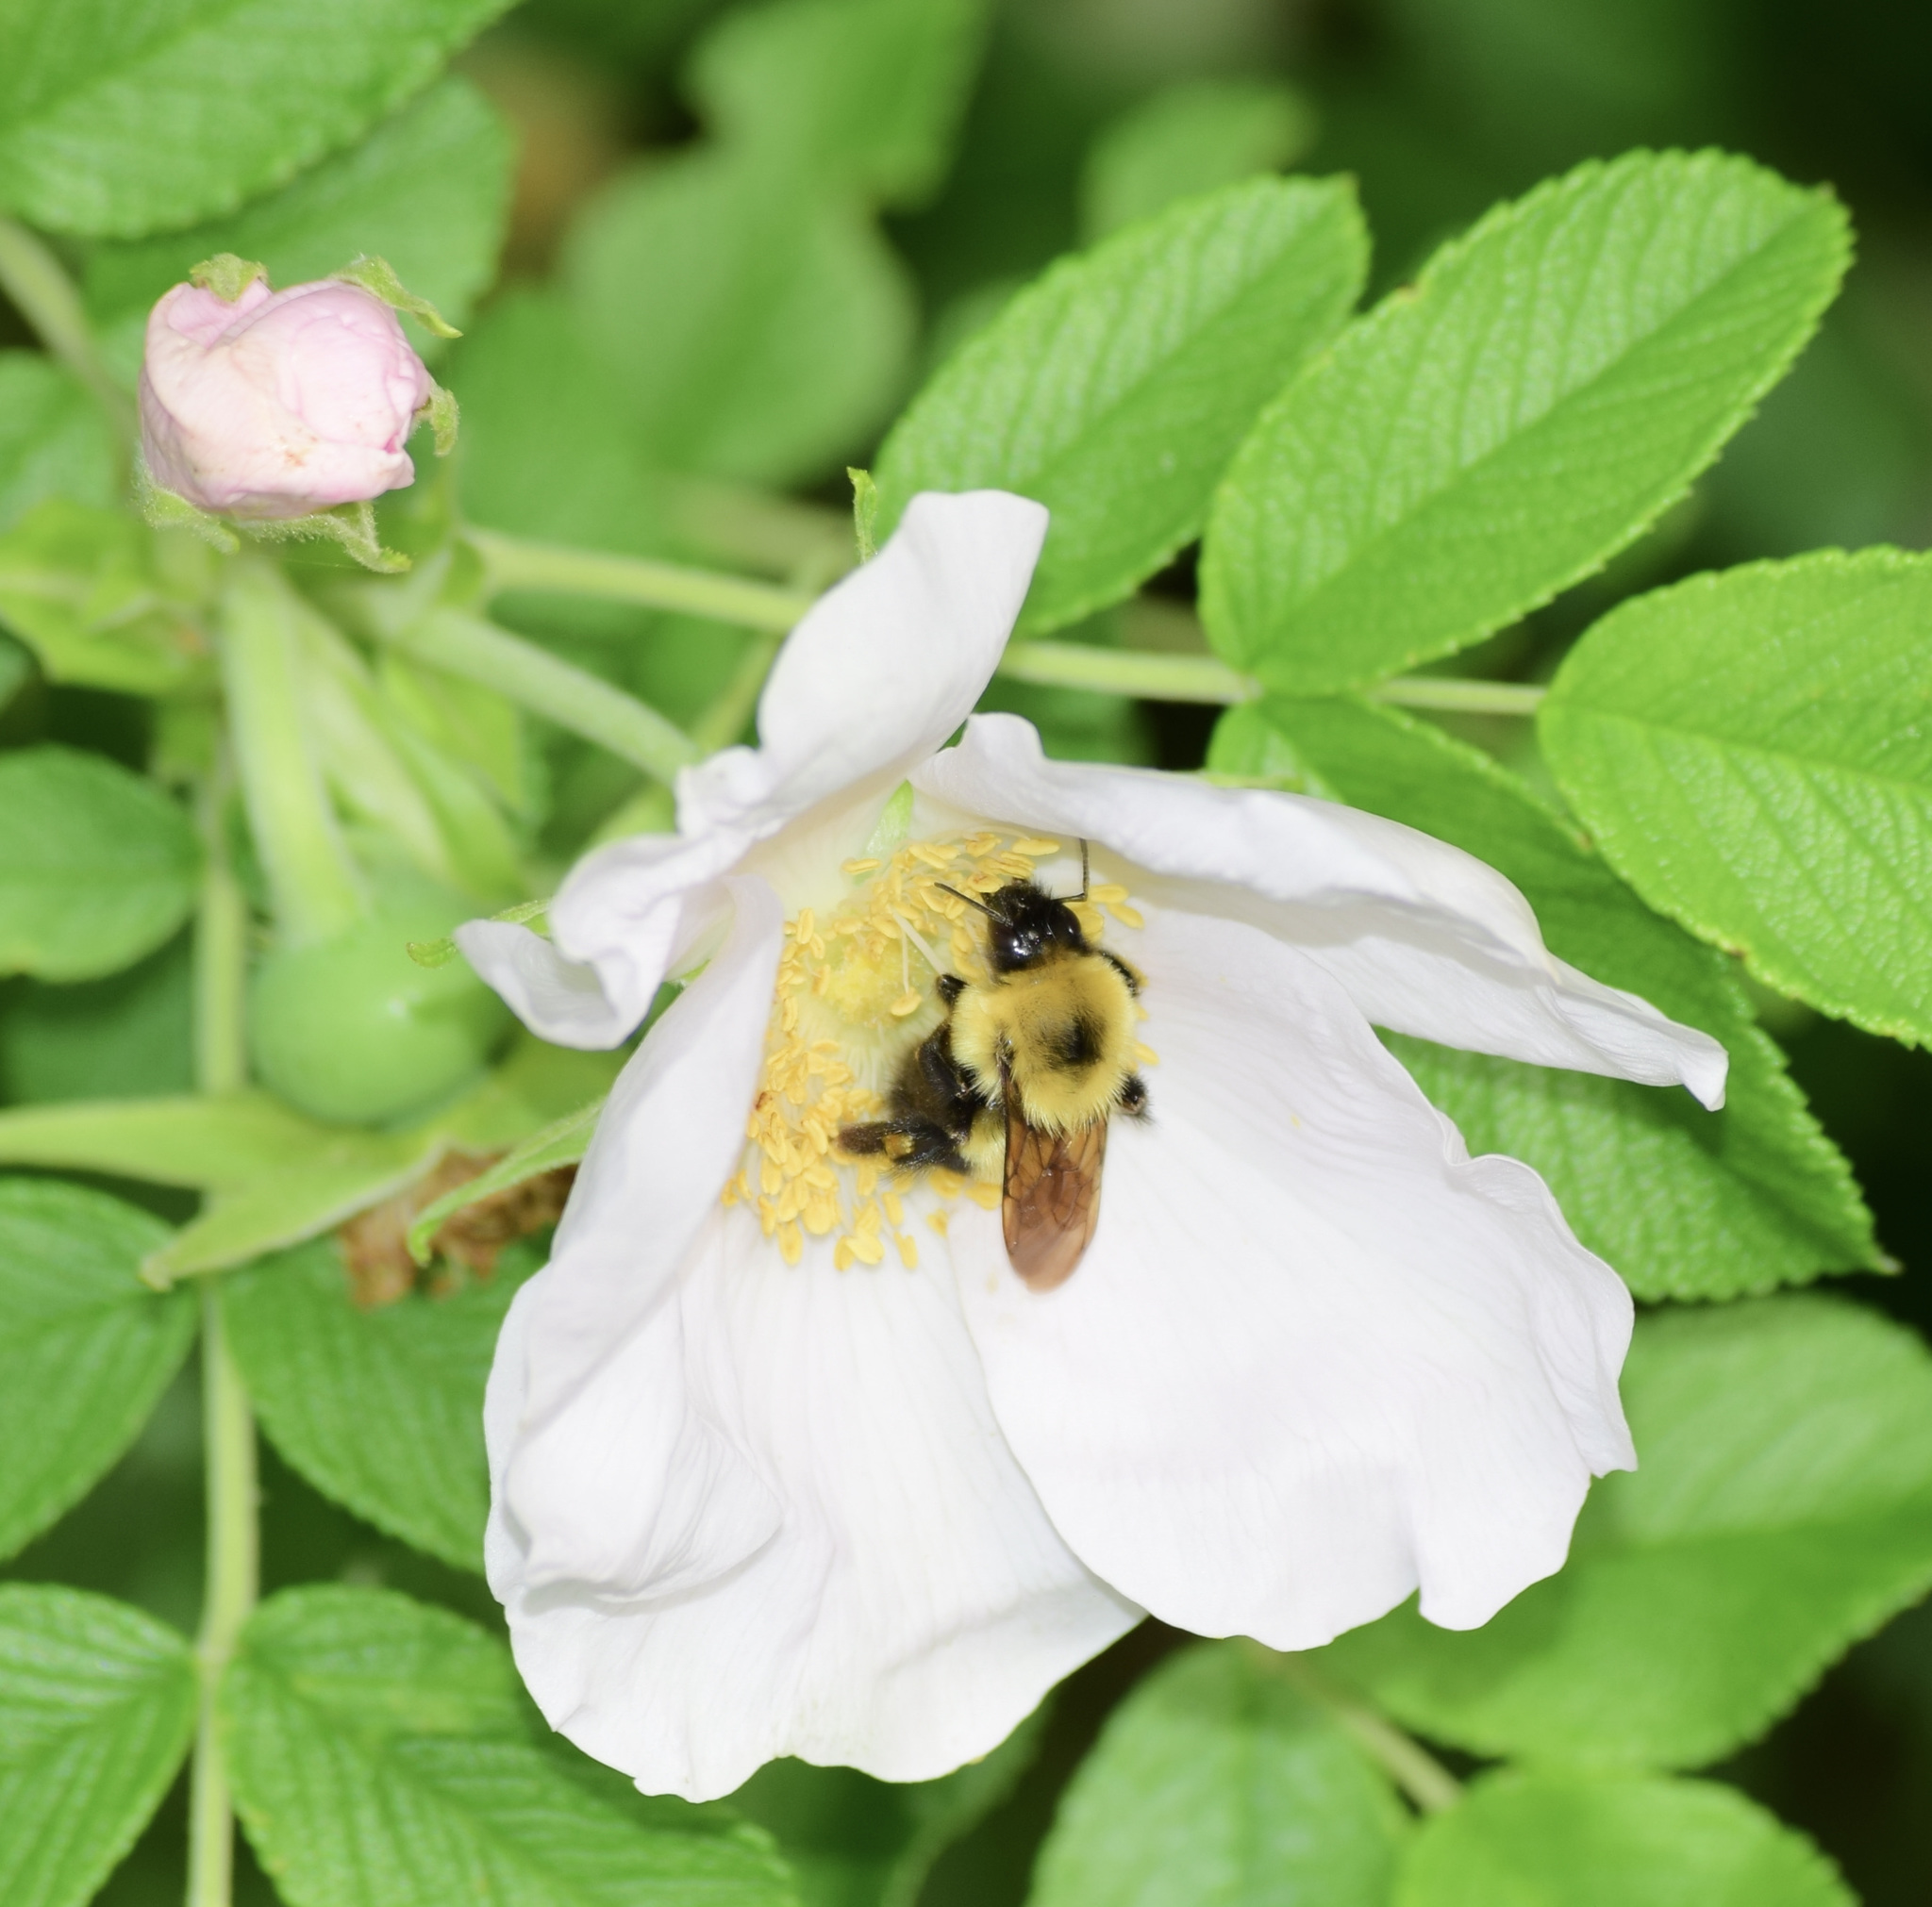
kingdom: Animalia
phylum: Arthropoda
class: Insecta
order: Hymenoptera
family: Apidae
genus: Bombus
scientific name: Bombus bimaculatus
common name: Two-spotted bumble bee
